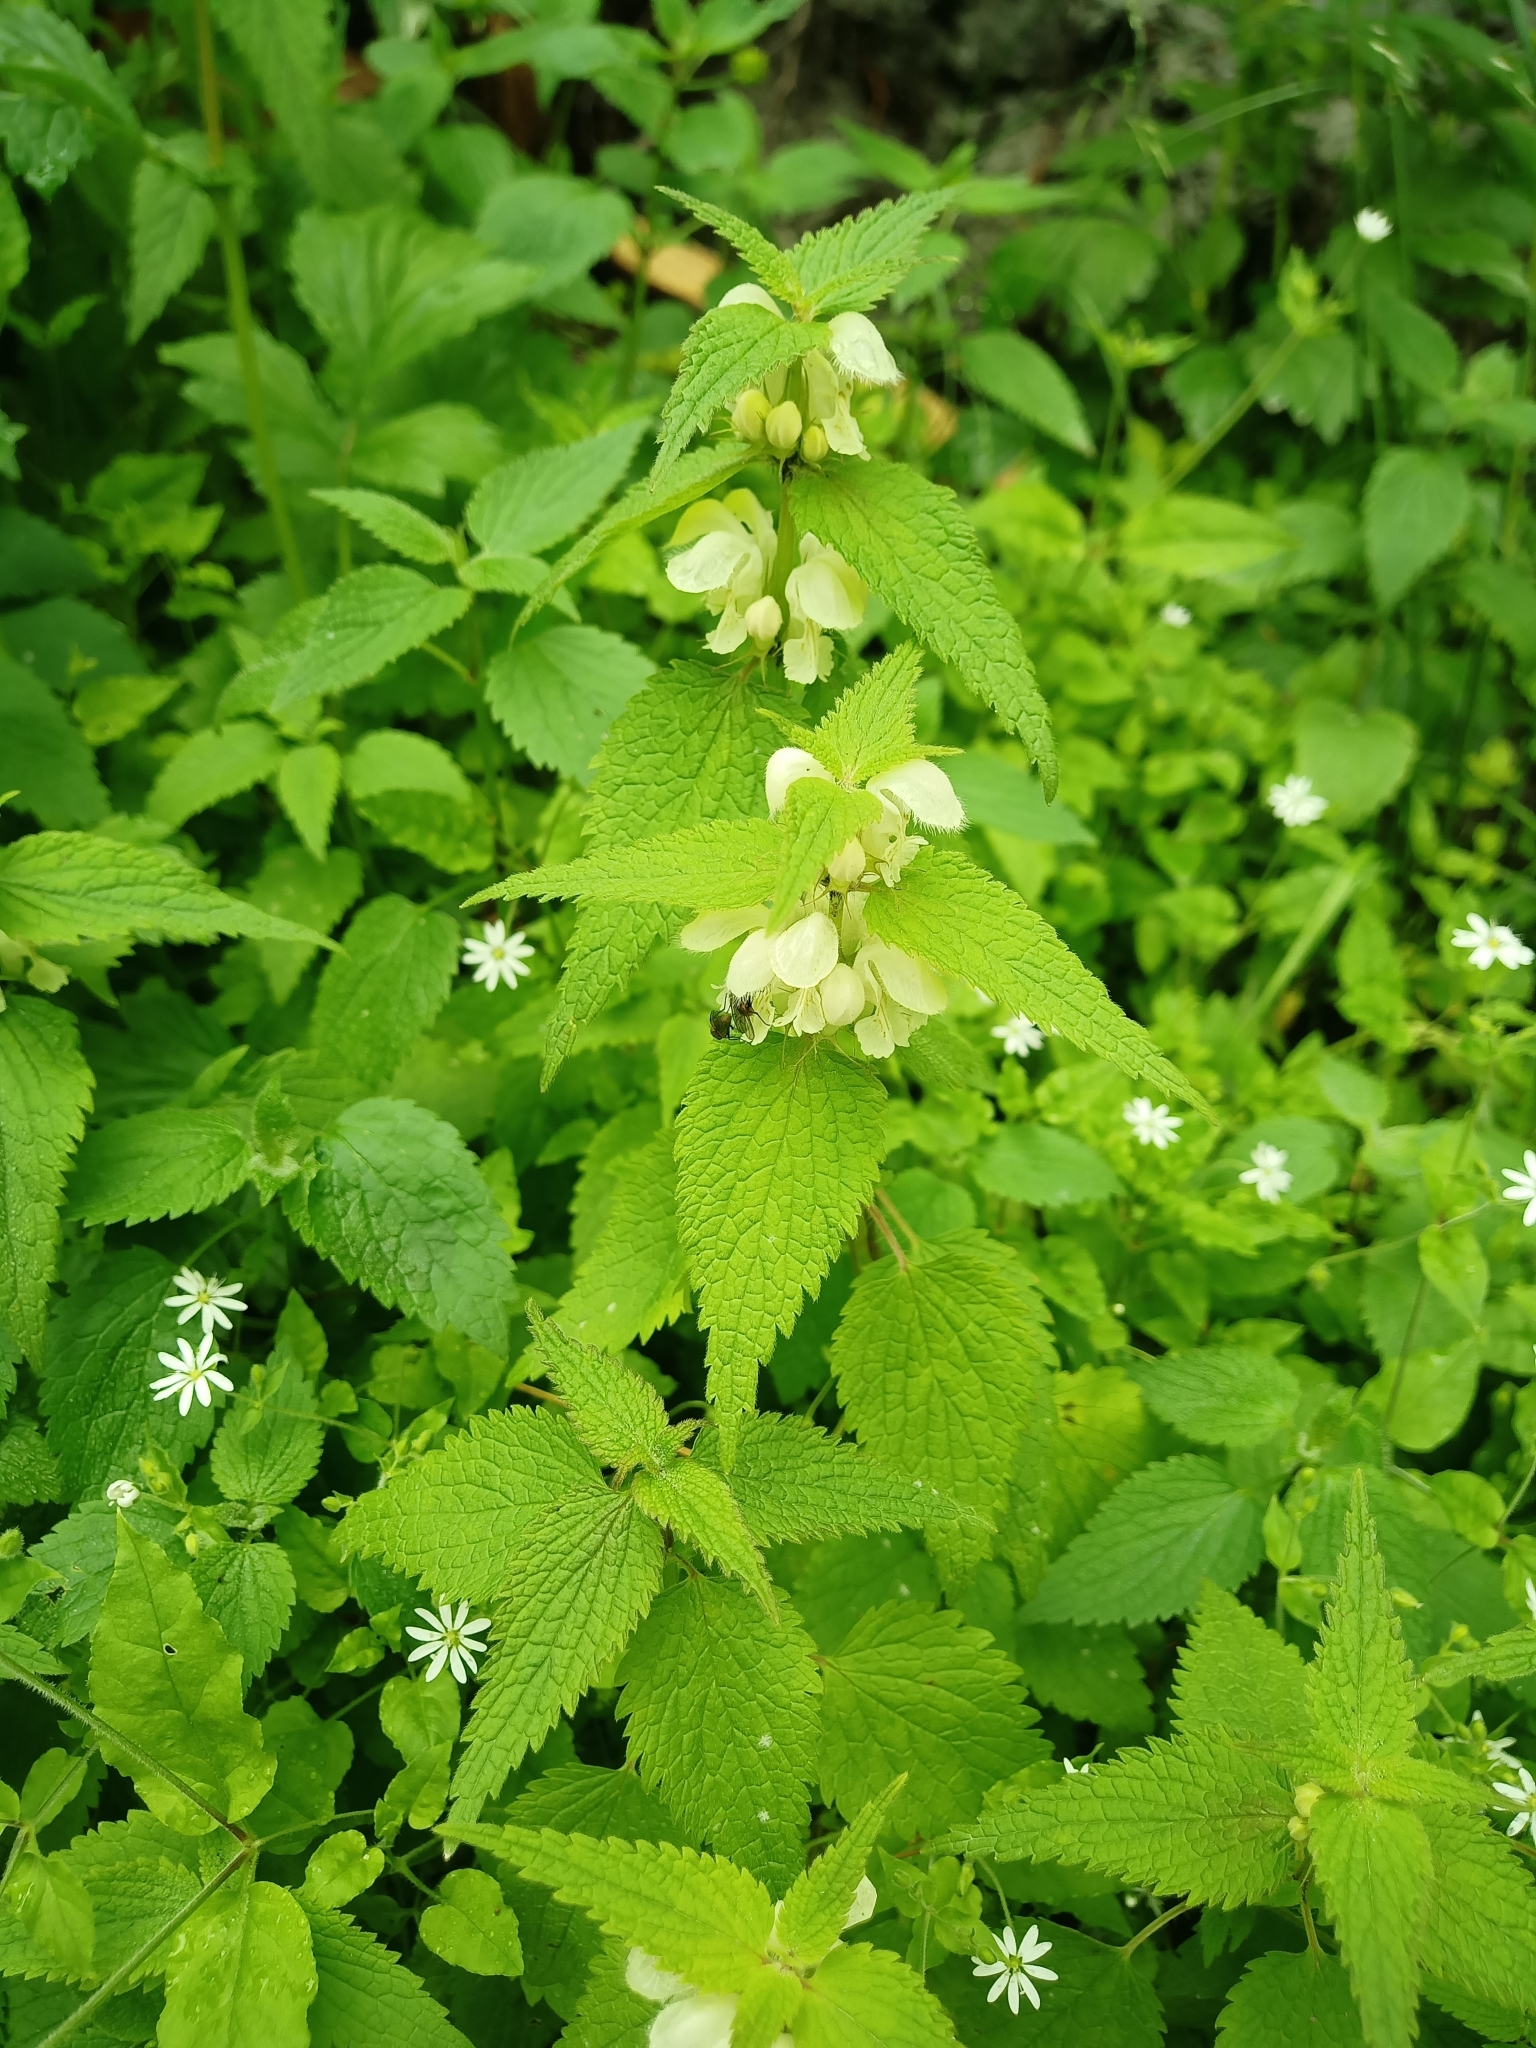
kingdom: Plantae
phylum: Tracheophyta
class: Magnoliopsida
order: Lamiales
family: Lamiaceae
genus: Lamium
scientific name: Lamium album
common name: White dead-nettle
